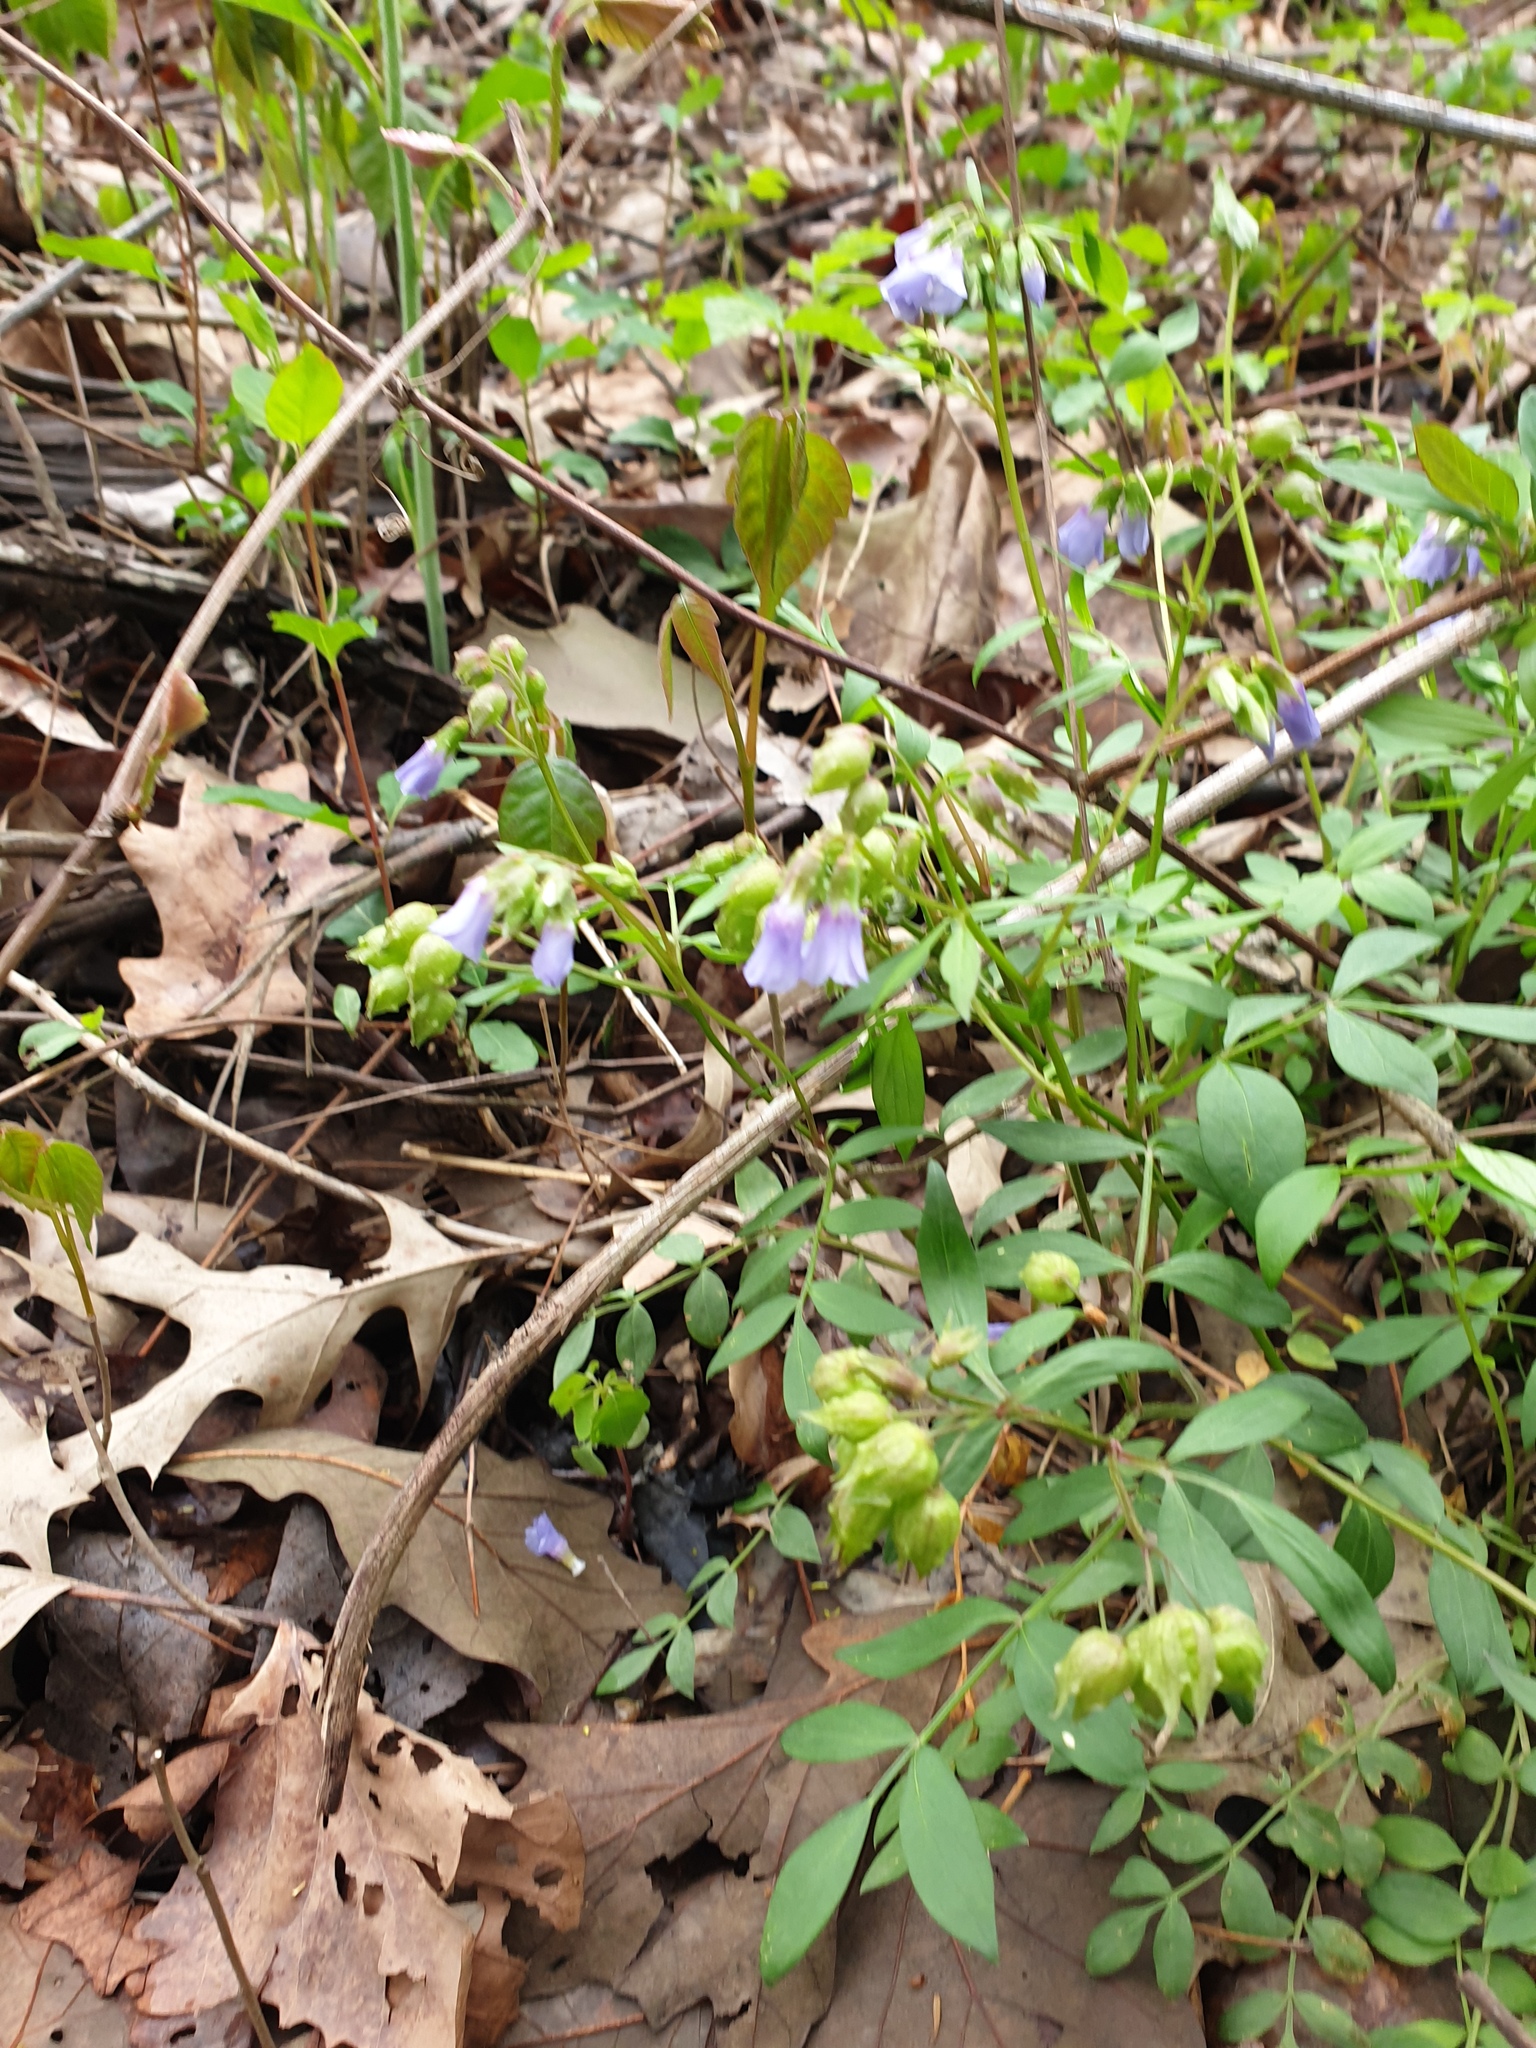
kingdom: Plantae
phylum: Tracheophyta
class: Magnoliopsida
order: Ericales
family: Polemoniaceae
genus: Polemonium
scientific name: Polemonium reptans
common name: Creeping jacob's-ladder
